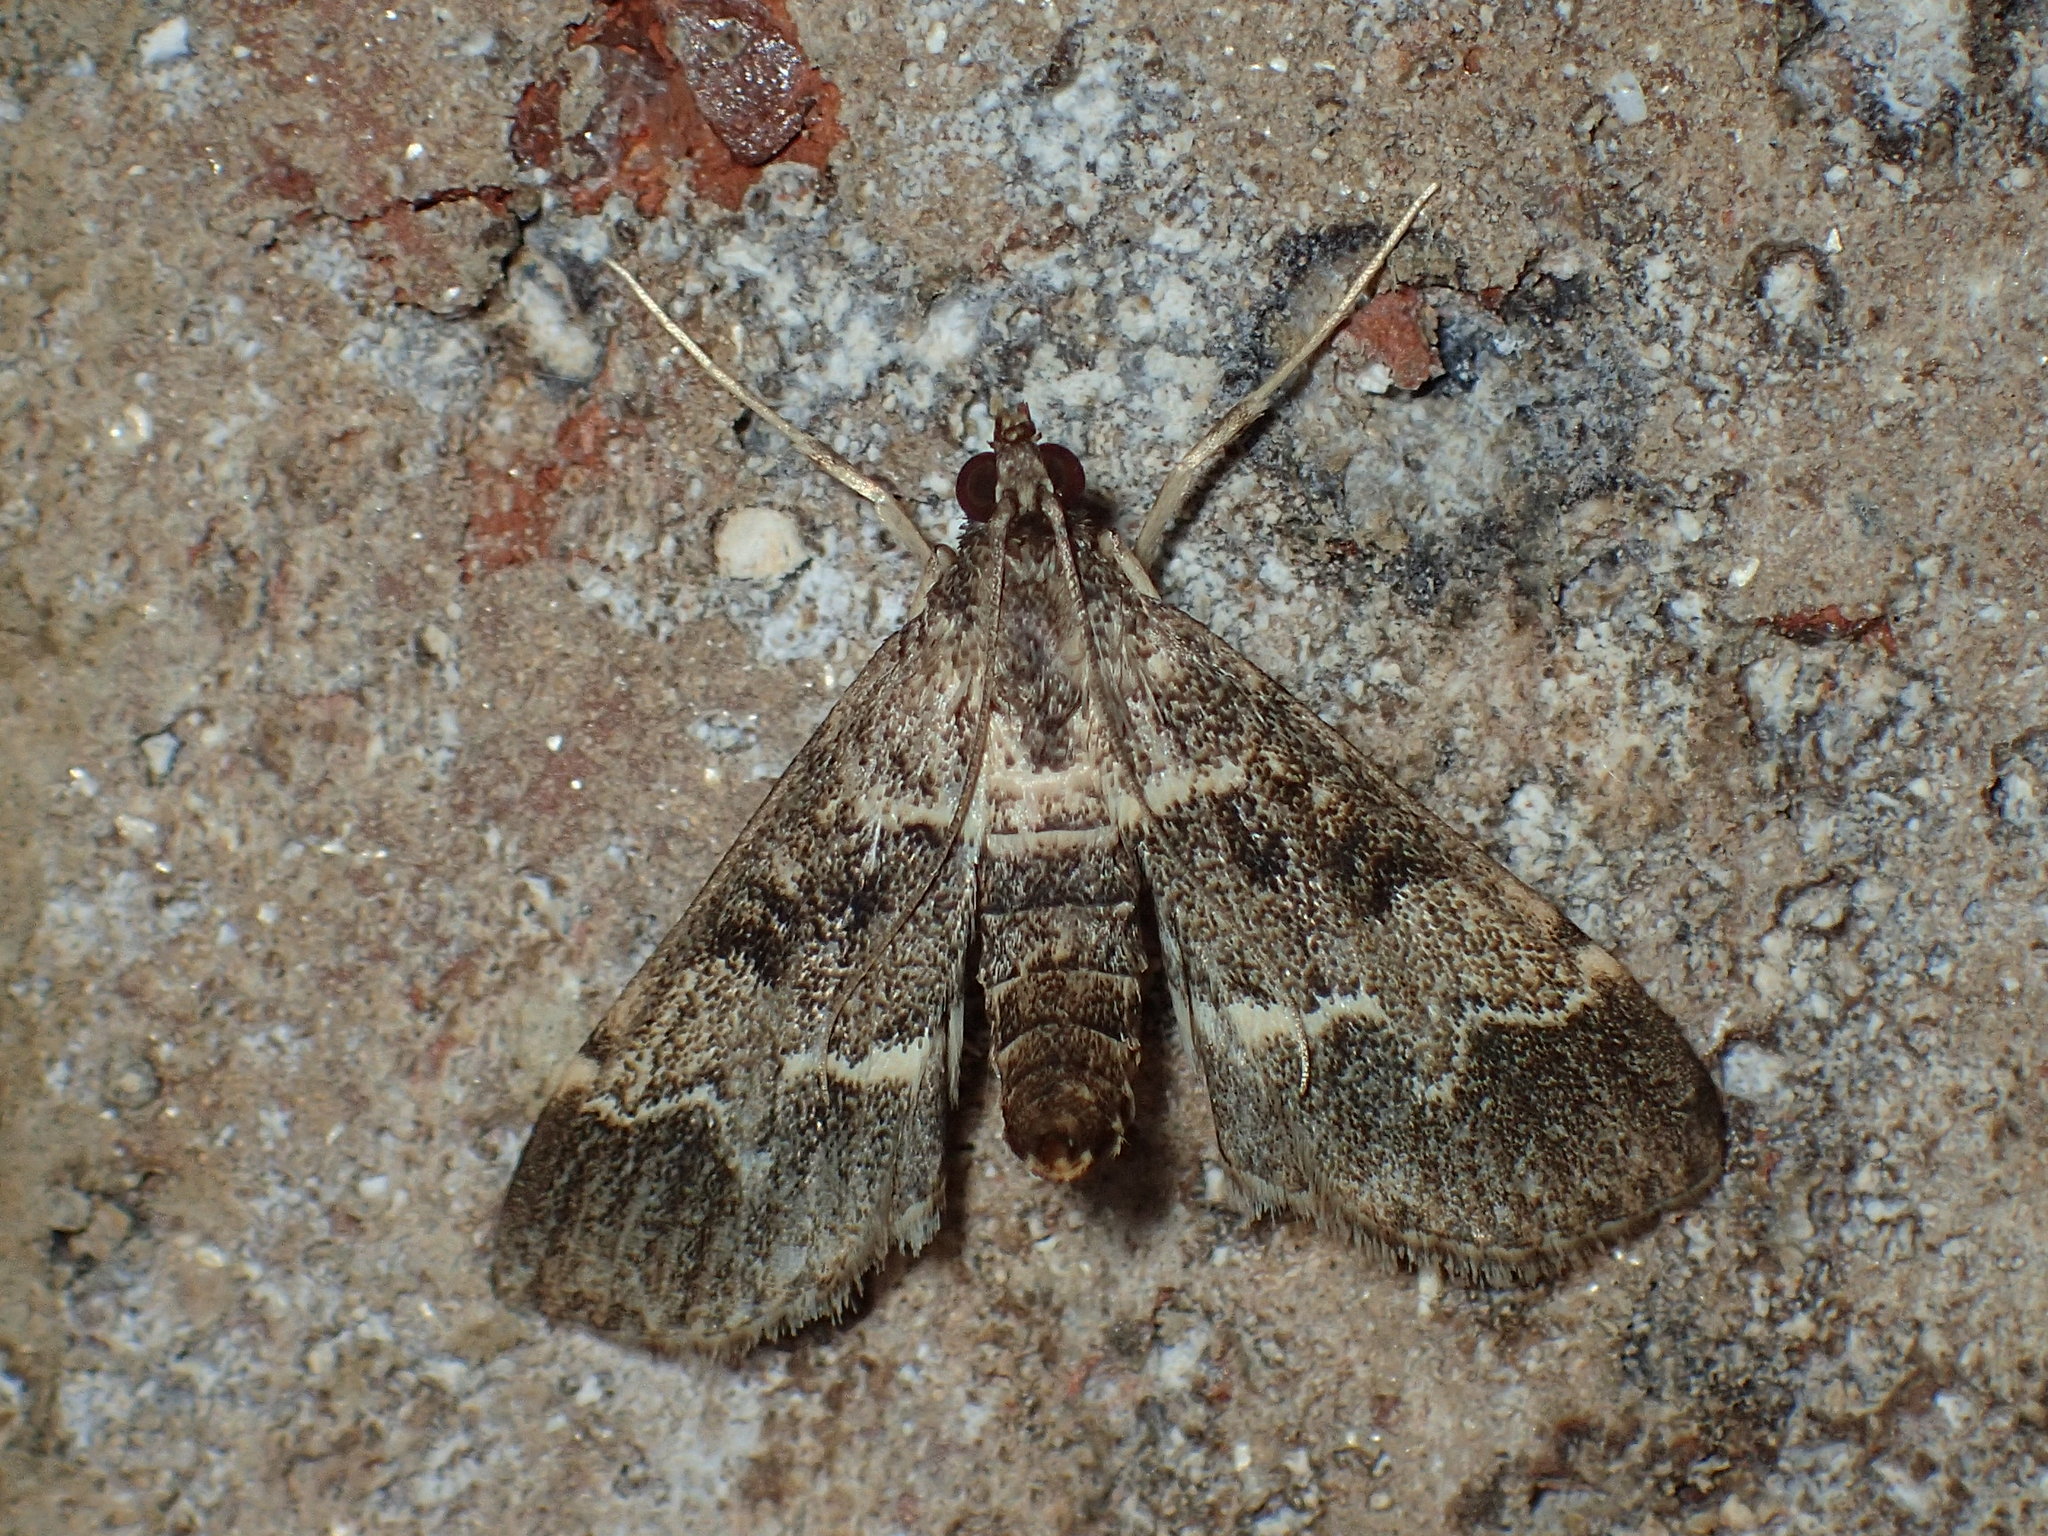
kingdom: Animalia
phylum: Arthropoda
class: Insecta
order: Lepidoptera
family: Crambidae
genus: Duponchelia
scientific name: Duponchelia fovealis
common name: Crambid moth
